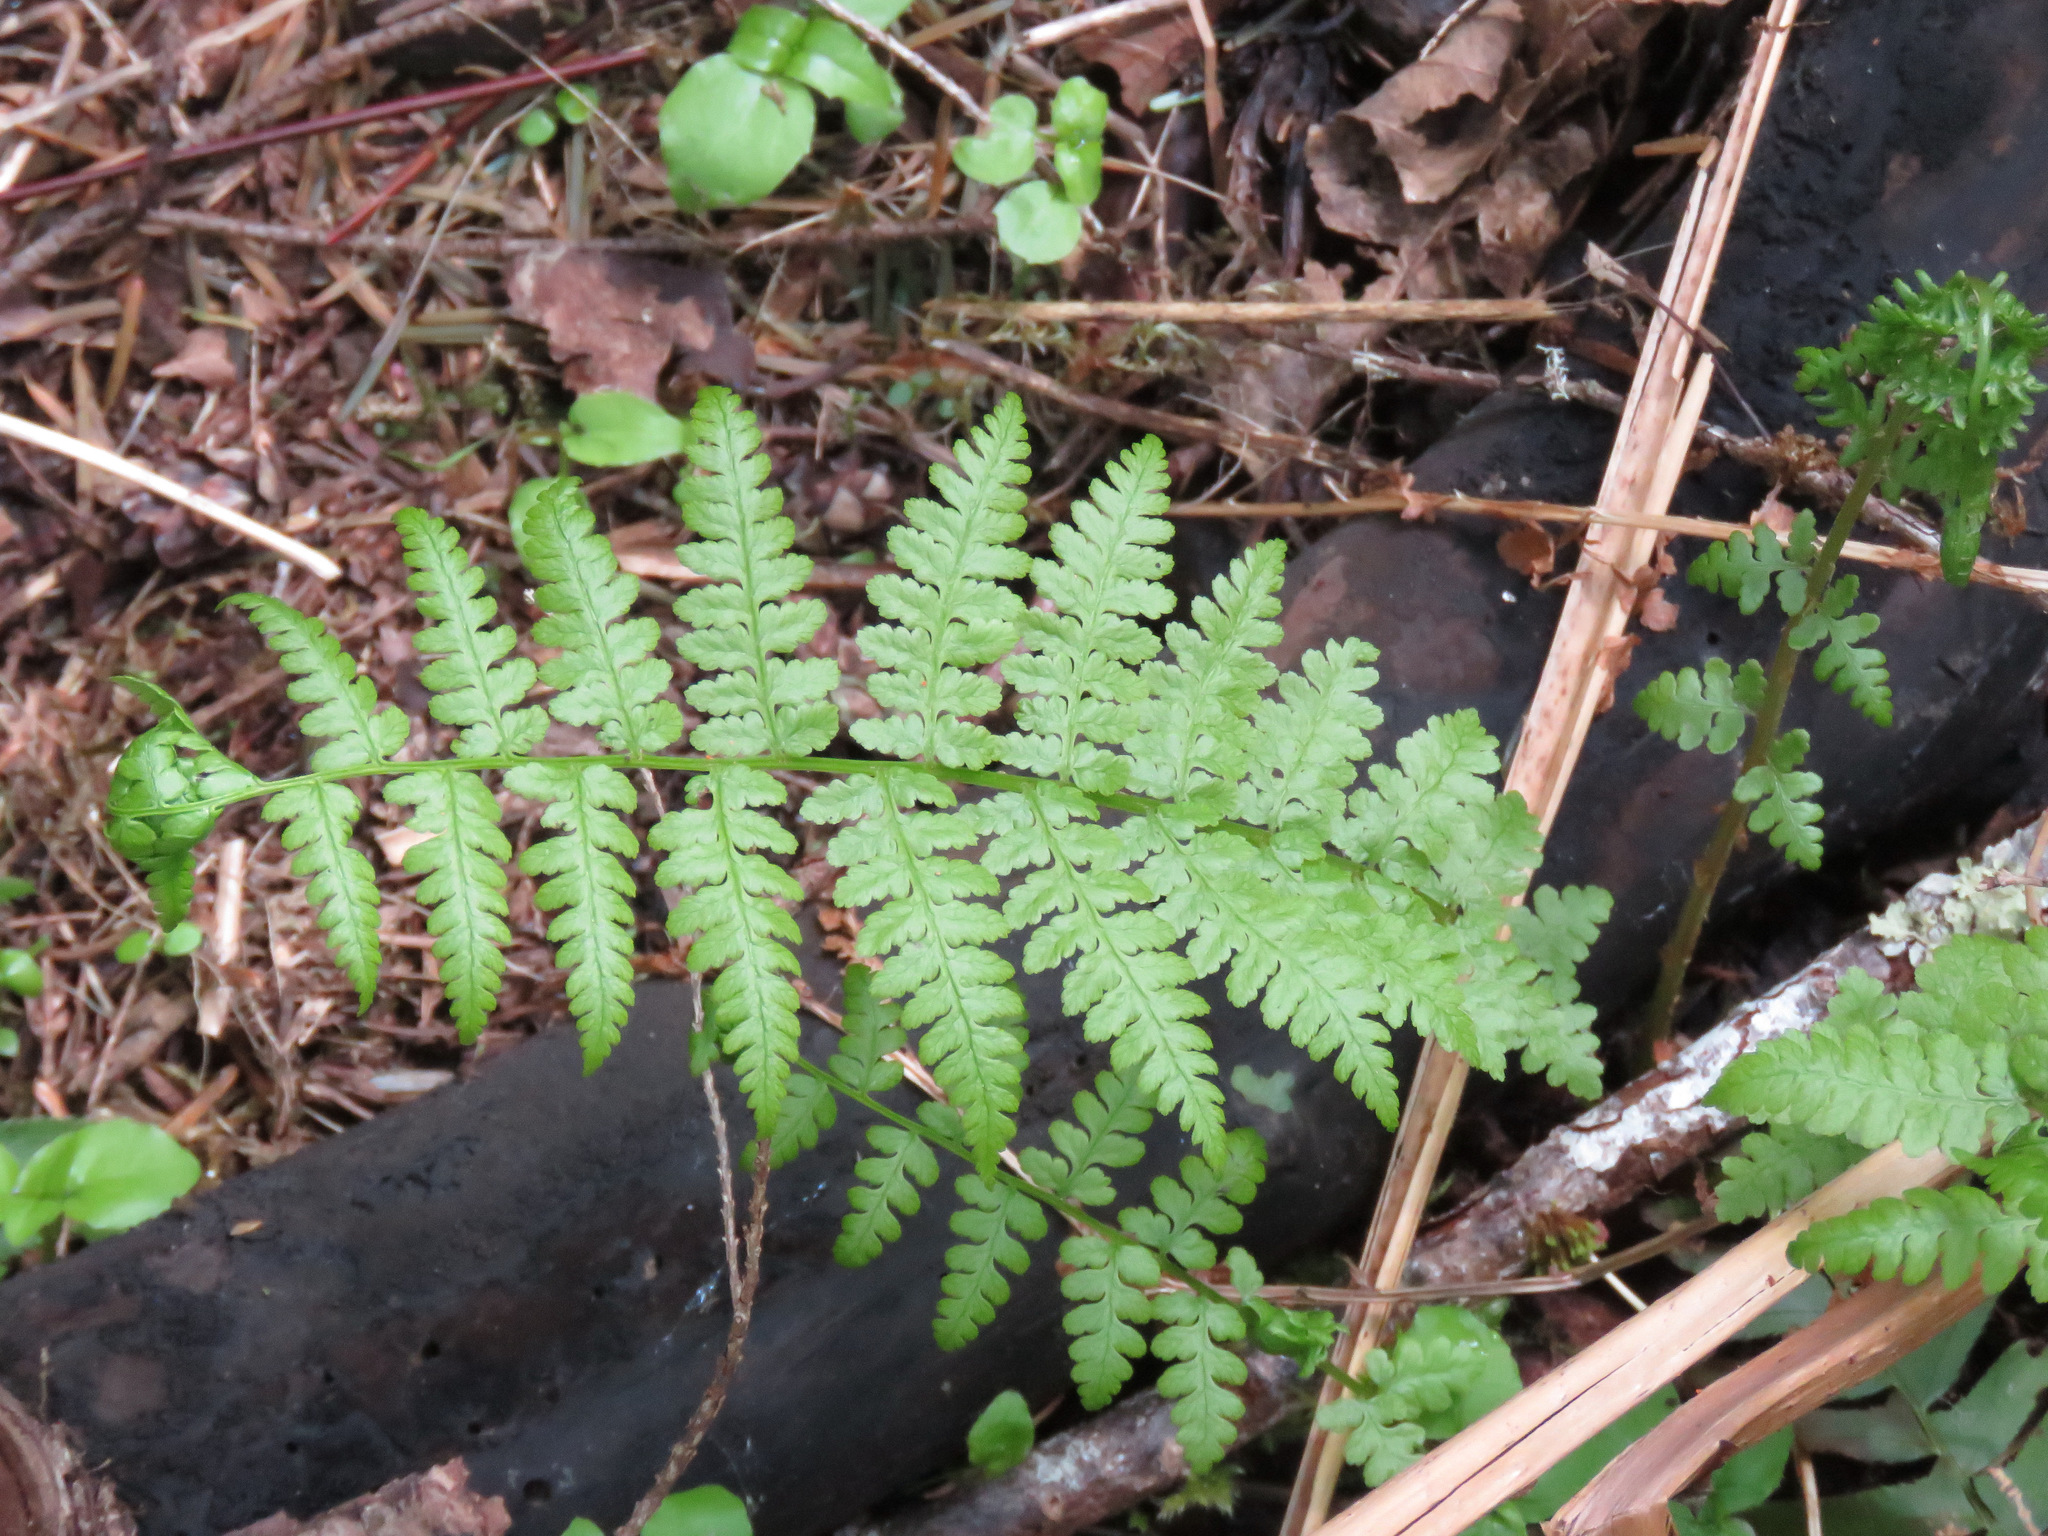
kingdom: Plantae
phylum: Tracheophyta
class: Polypodiopsida
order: Polypodiales
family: Athyriaceae
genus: Athyrium
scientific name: Athyrium filix-femina
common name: Lady fern
